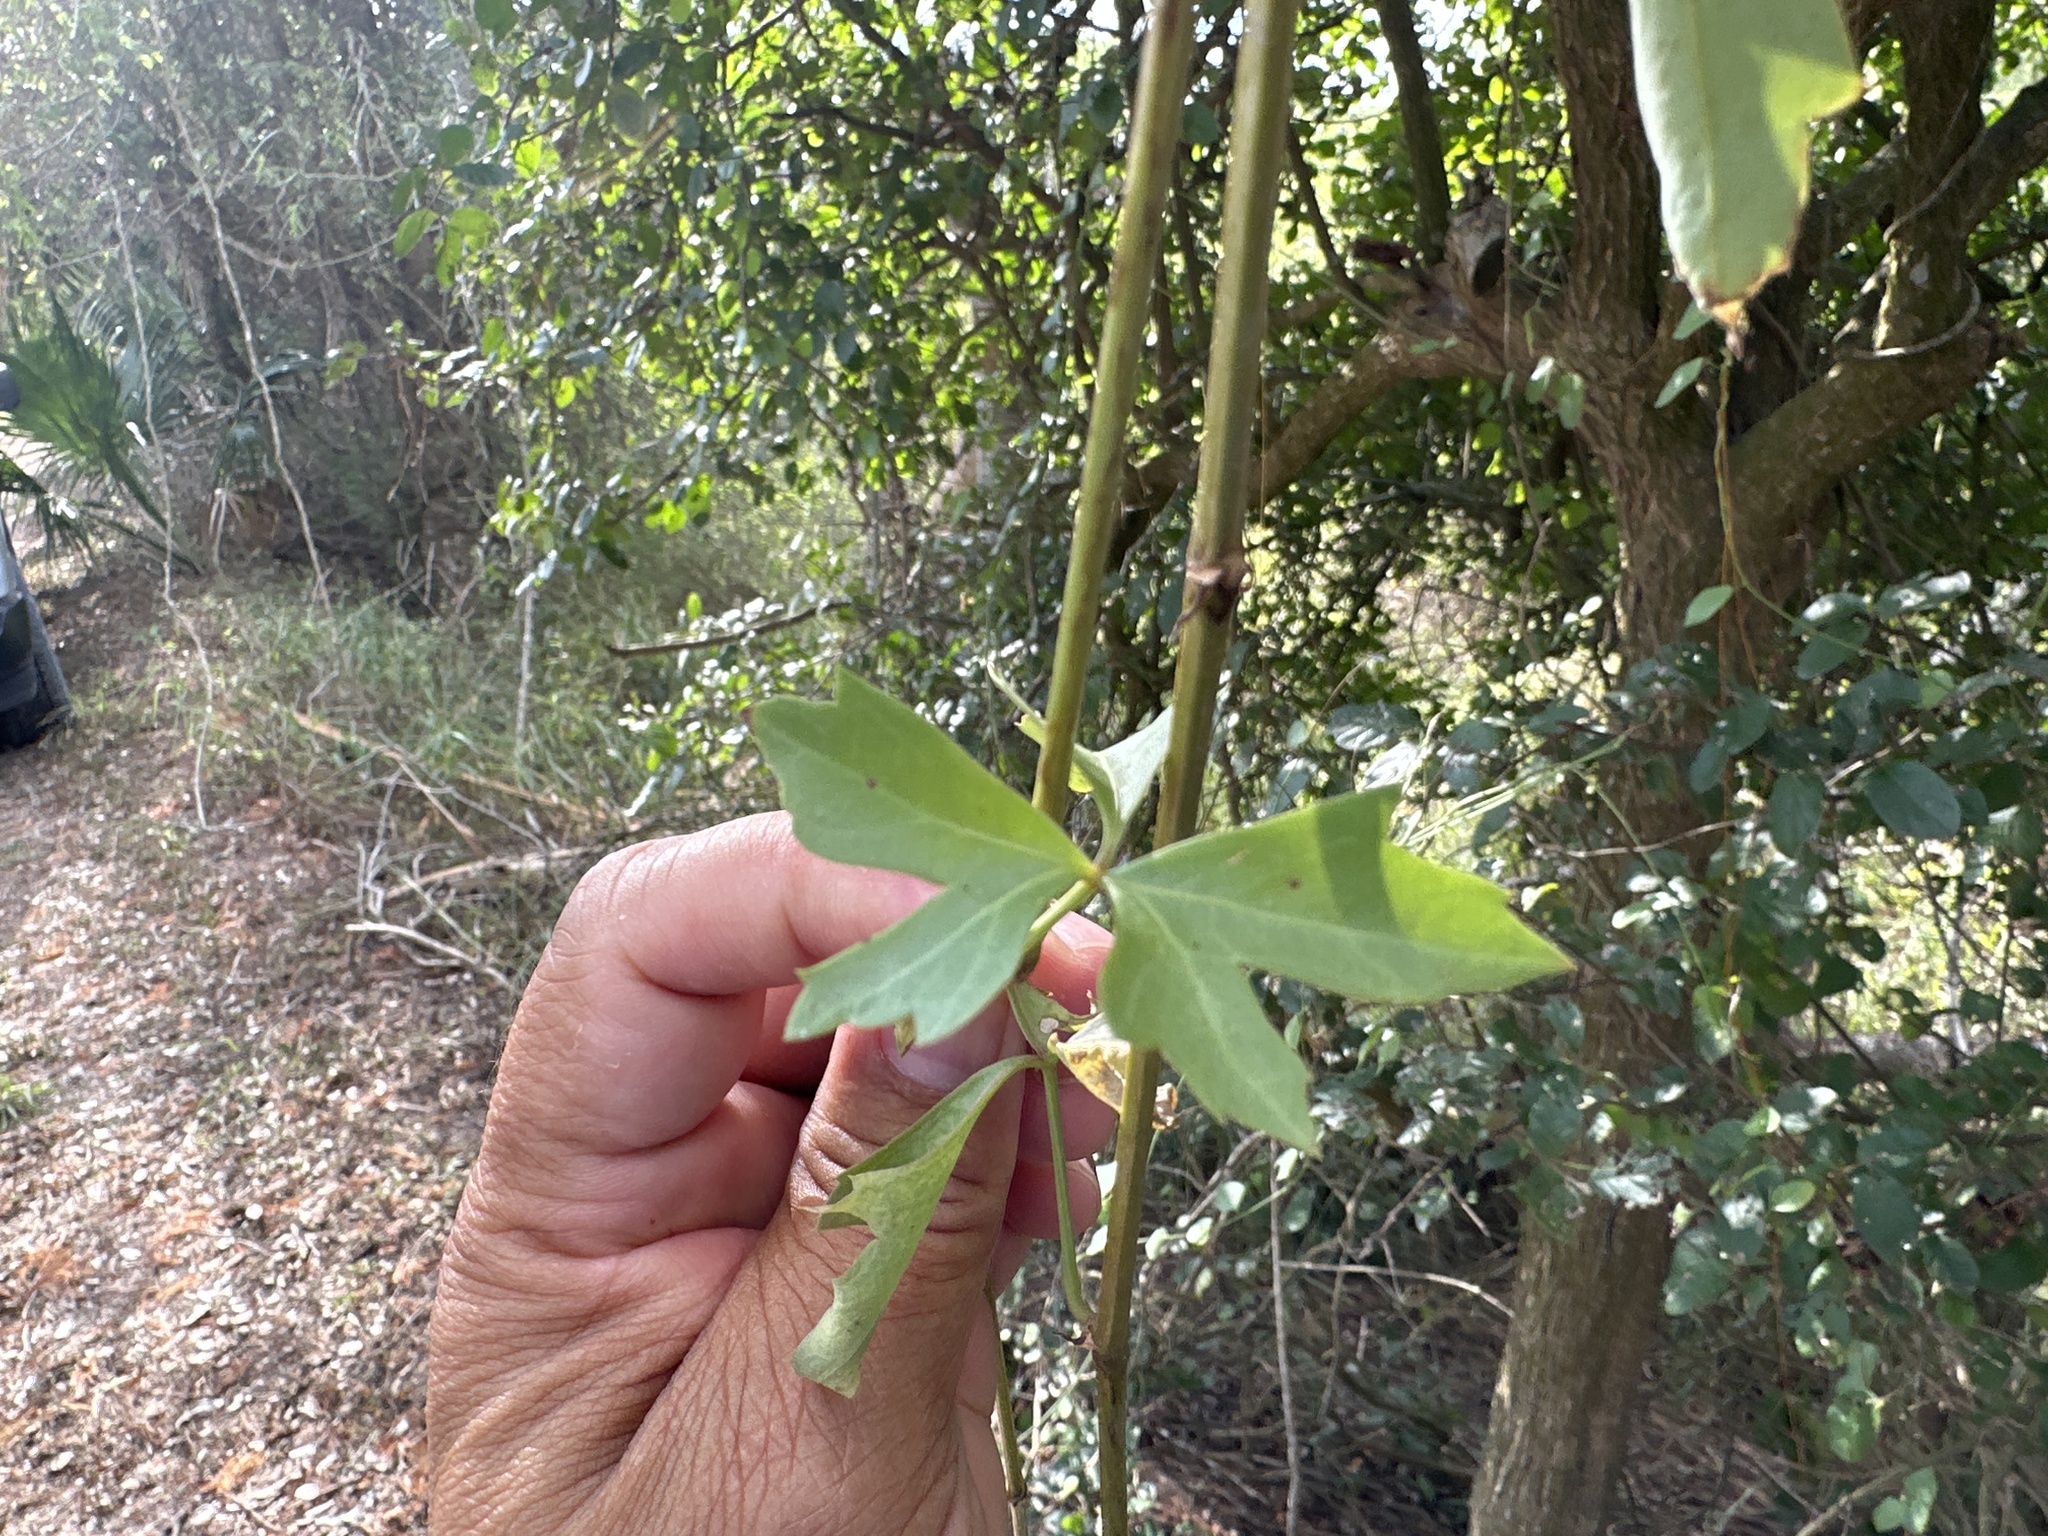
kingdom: Plantae
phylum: Tracheophyta
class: Magnoliopsida
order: Vitales
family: Vitaceae
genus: Cissus
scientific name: Cissus trifoliata
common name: Vine-sorrel
